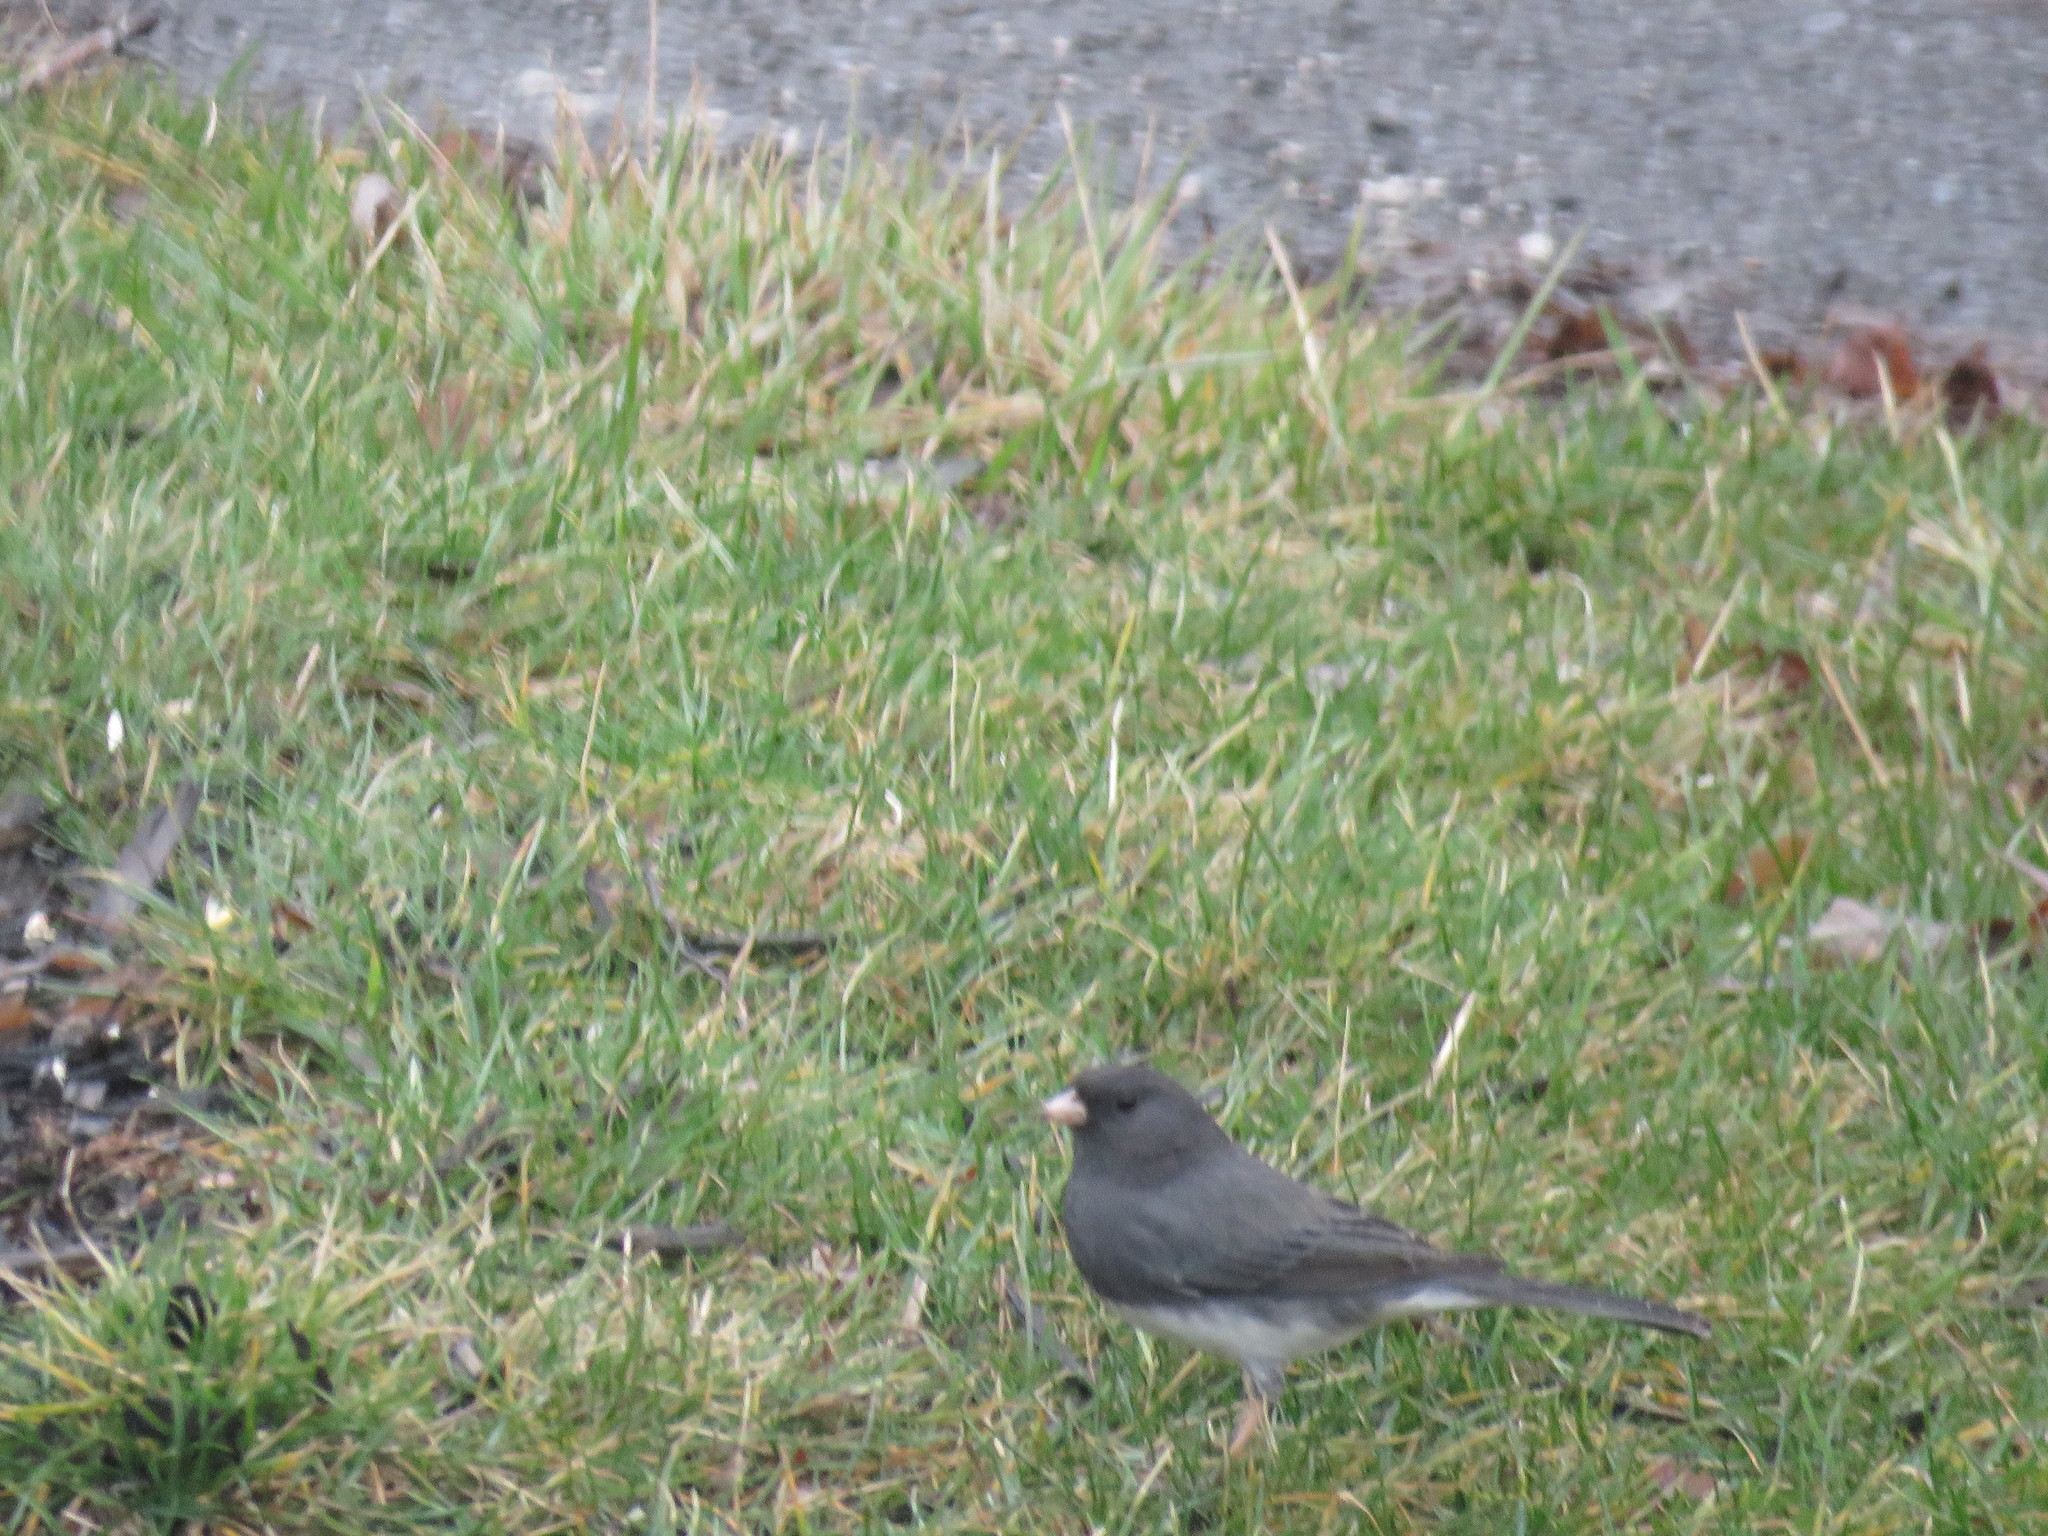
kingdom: Animalia
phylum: Chordata
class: Aves
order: Passeriformes
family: Passerellidae
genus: Junco
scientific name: Junco hyemalis
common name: Dark-eyed junco
